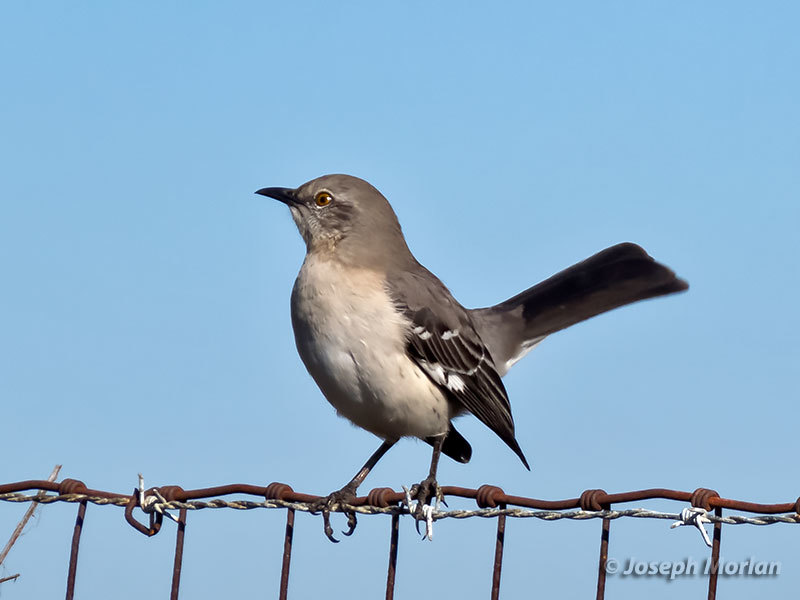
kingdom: Animalia
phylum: Chordata
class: Aves
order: Passeriformes
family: Mimidae
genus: Mimus
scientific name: Mimus polyglottos
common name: Northern mockingbird
